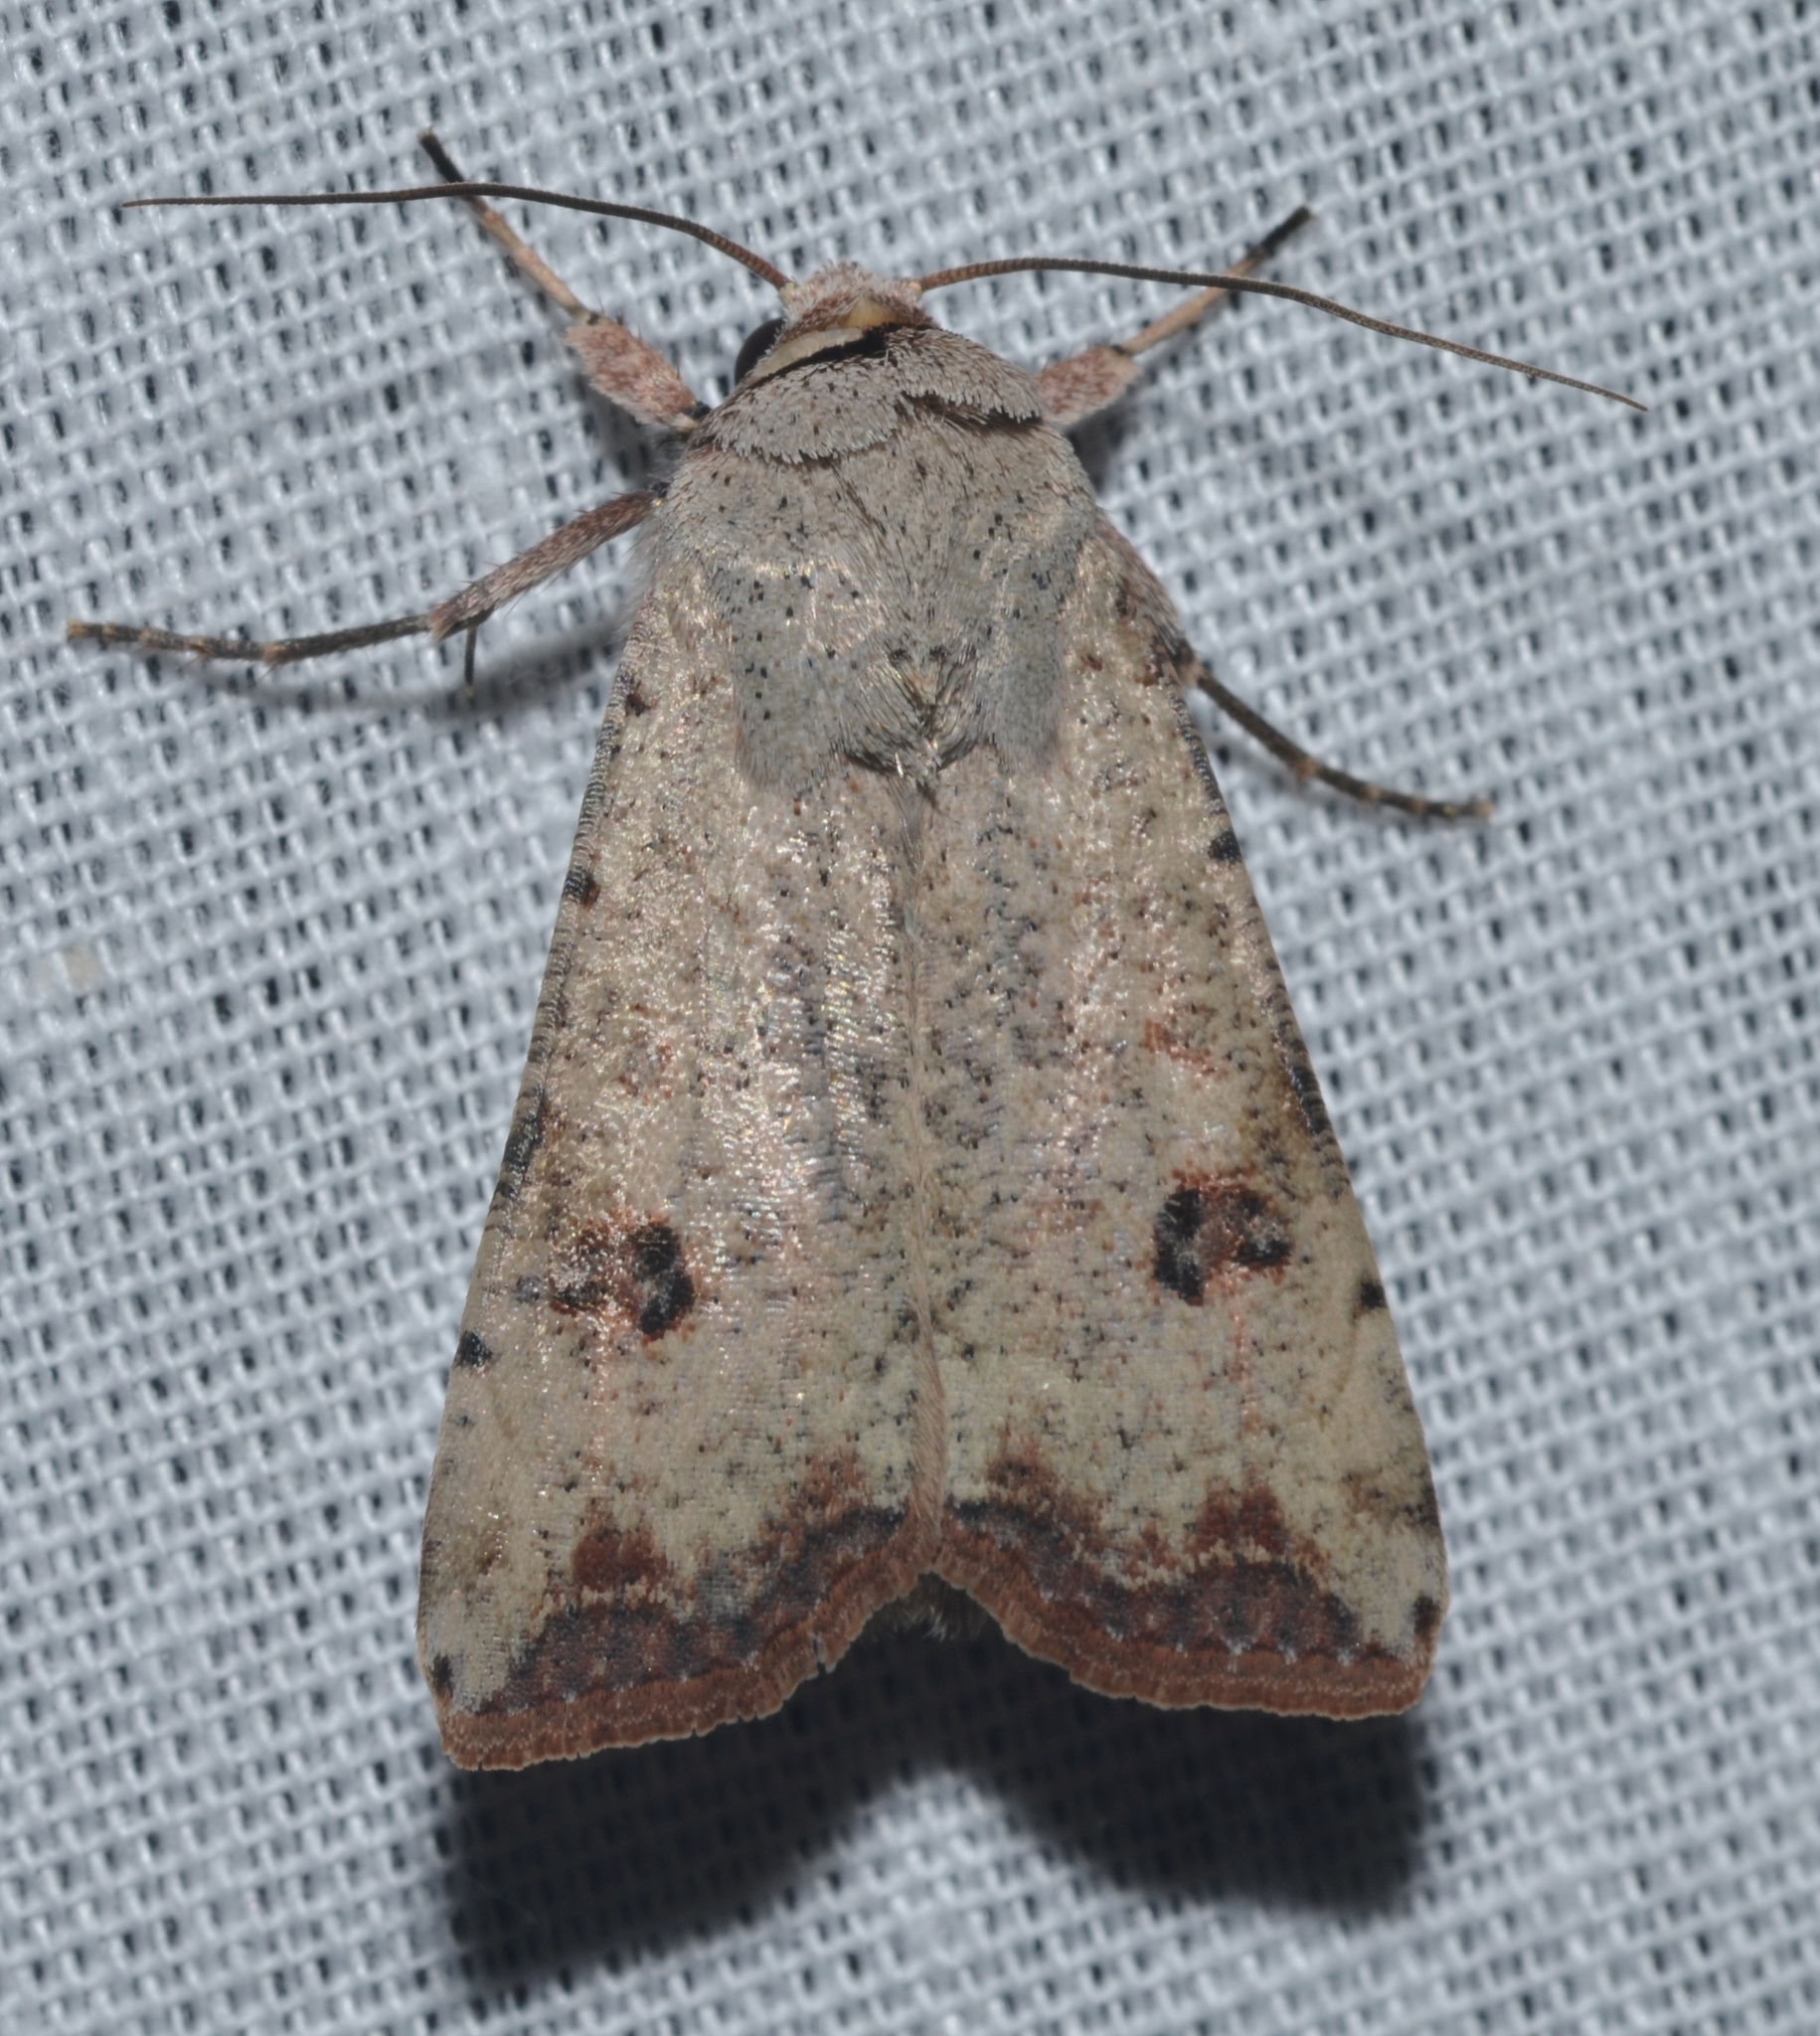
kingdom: Animalia
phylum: Arthropoda
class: Insecta
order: Lepidoptera
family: Noctuidae
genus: Anicla
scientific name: Anicla infecta
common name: Green cutworm
